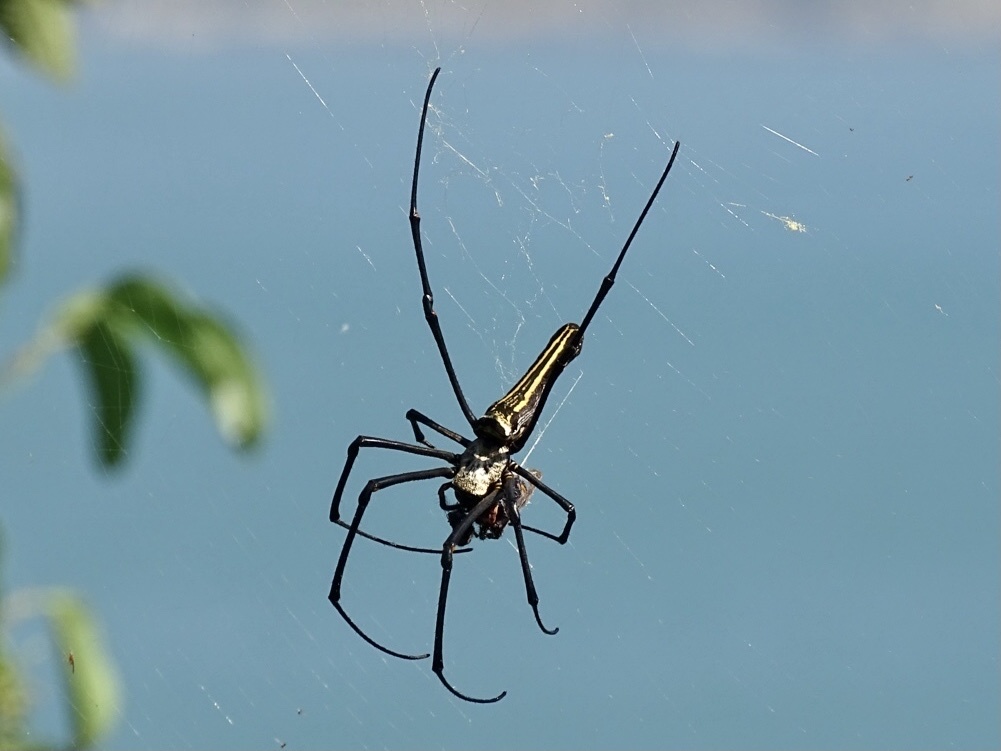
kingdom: Animalia
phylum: Arthropoda
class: Arachnida
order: Araneae
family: Araneidae
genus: Nephila
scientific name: Nephila pilipes
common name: Giant golden orb weaver
